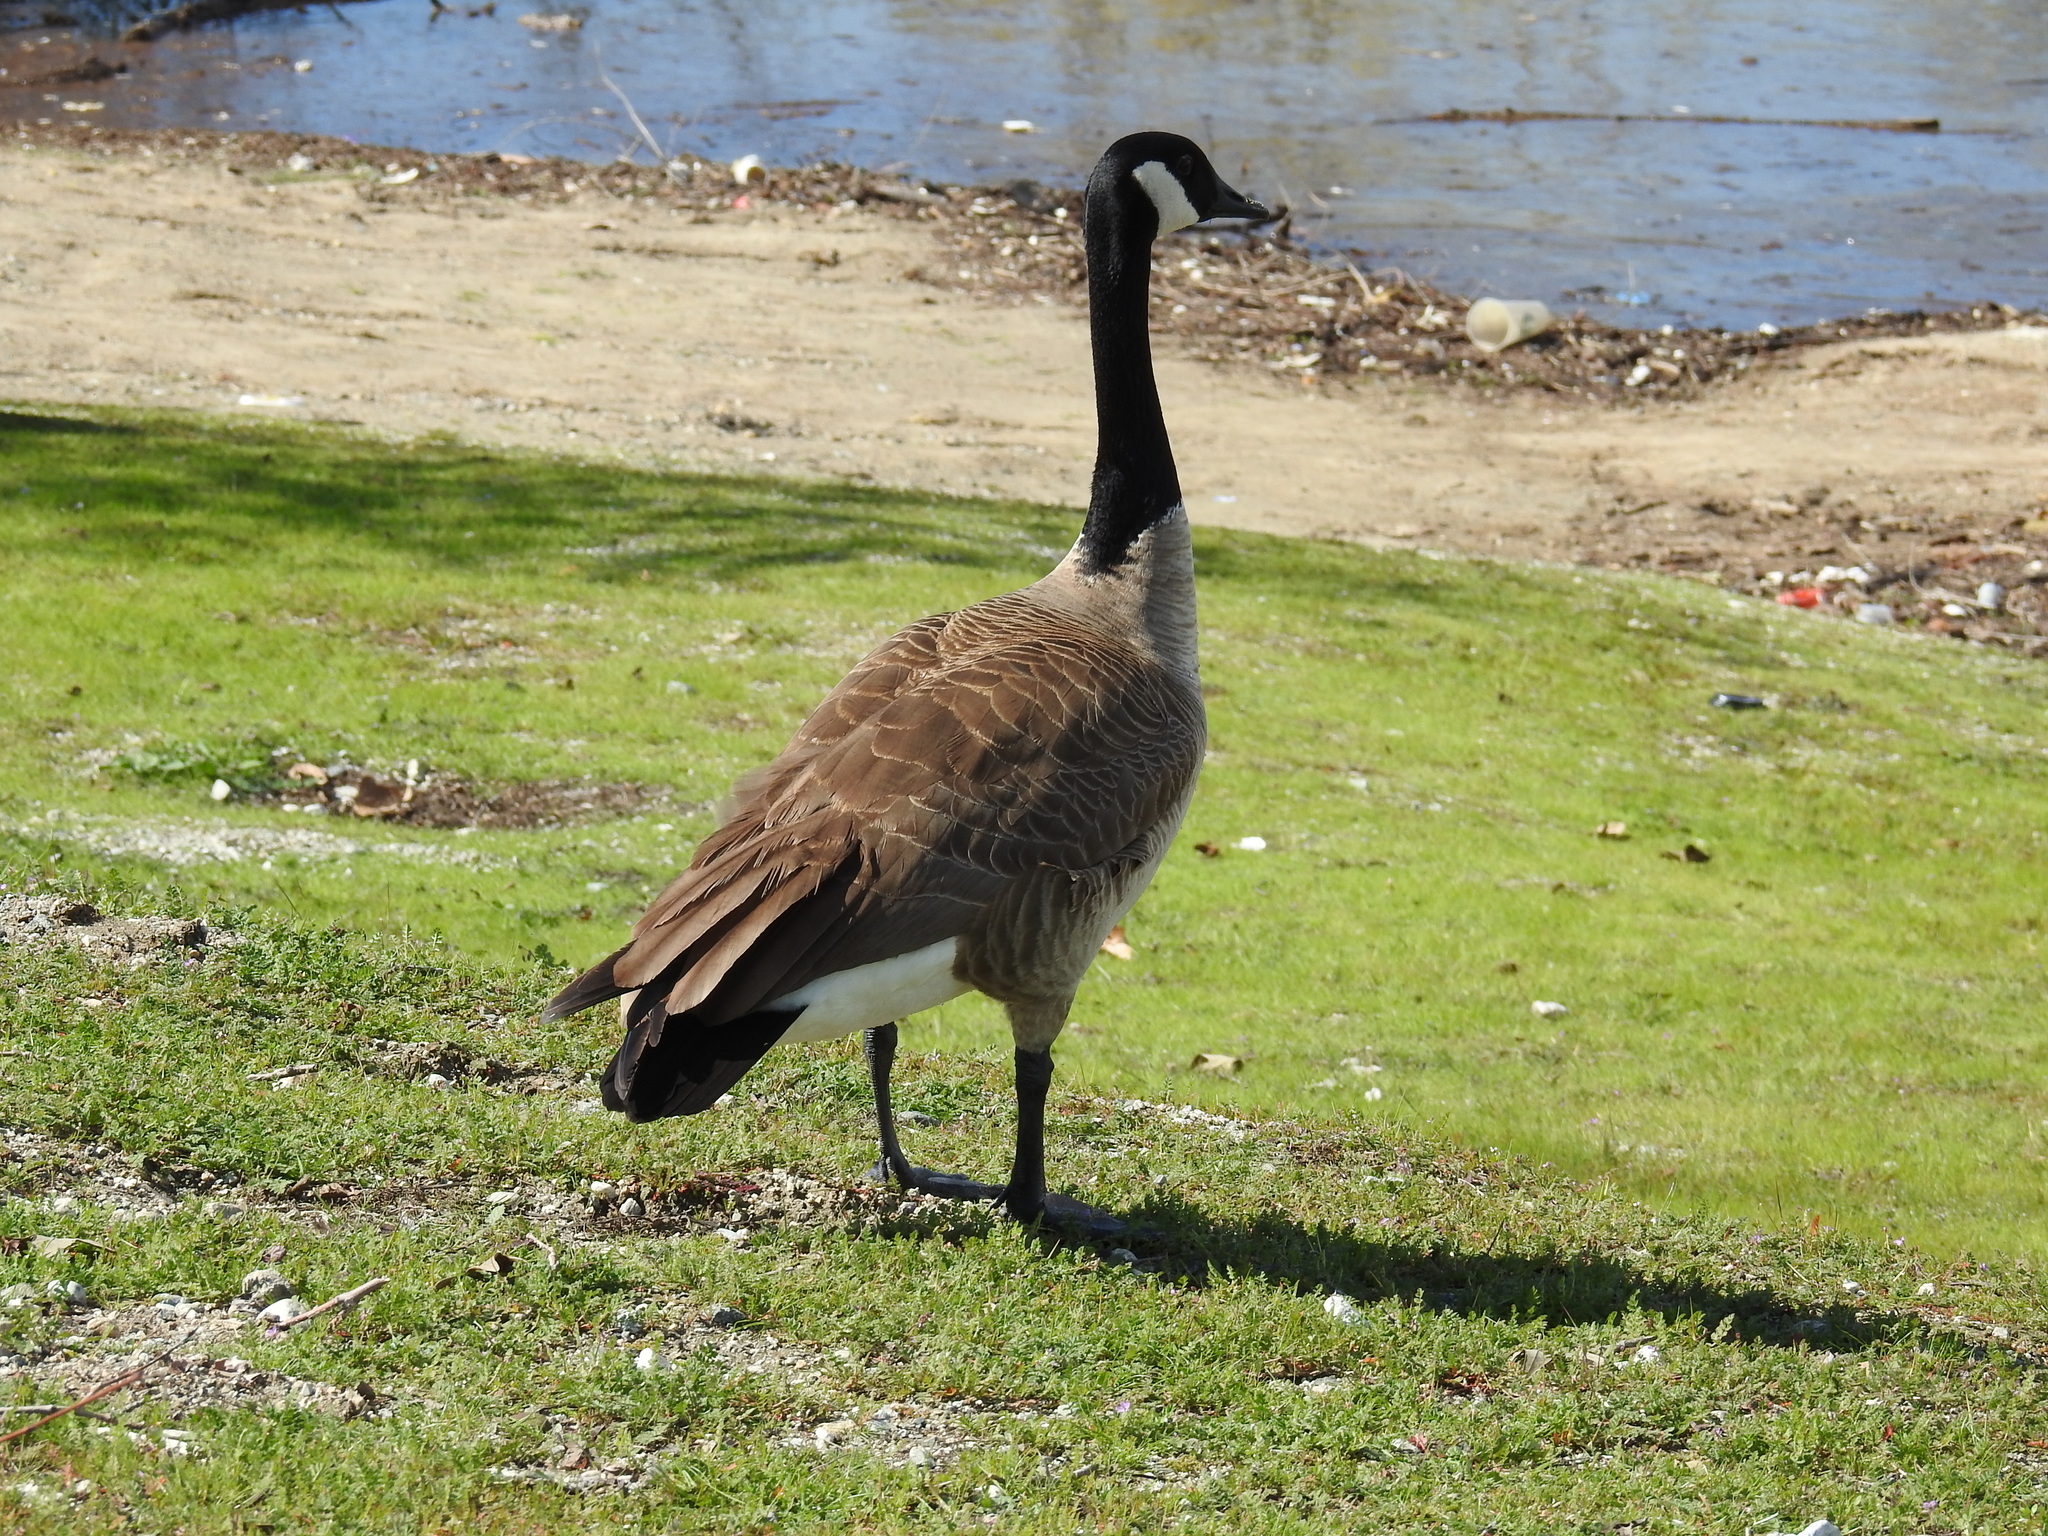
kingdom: Animalia
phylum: Chordata
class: Aves
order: Anseriformes
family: Anatidae
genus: Branta
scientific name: Branta canadensis
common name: Canada goose
